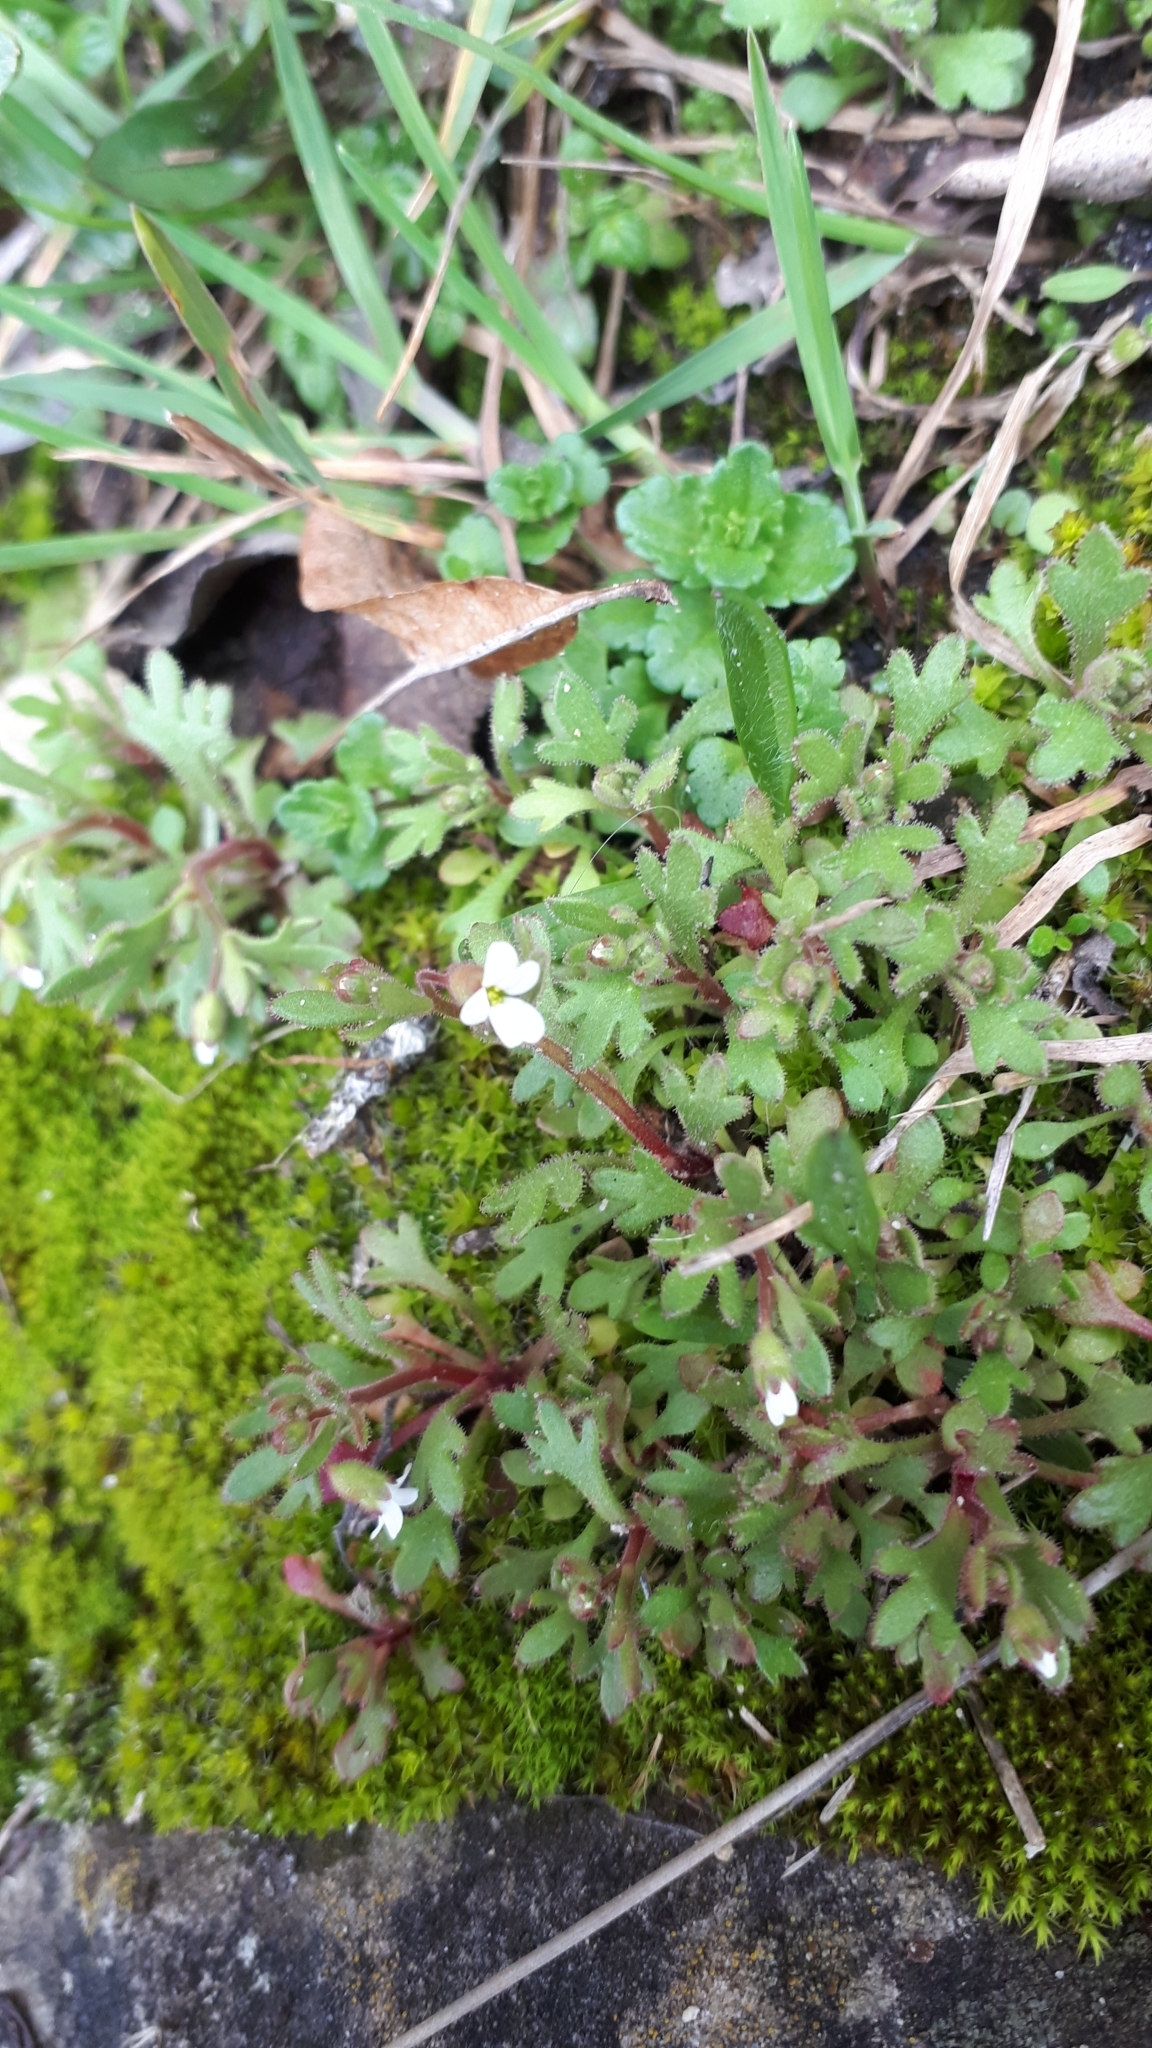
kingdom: Plantae
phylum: Tracheophyta
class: Magnoliopsida
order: Saxifragales
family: Saxifragaceae
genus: Saxifraga
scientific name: Saxifraga tridactylites
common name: Rue-leaved saxifrage
